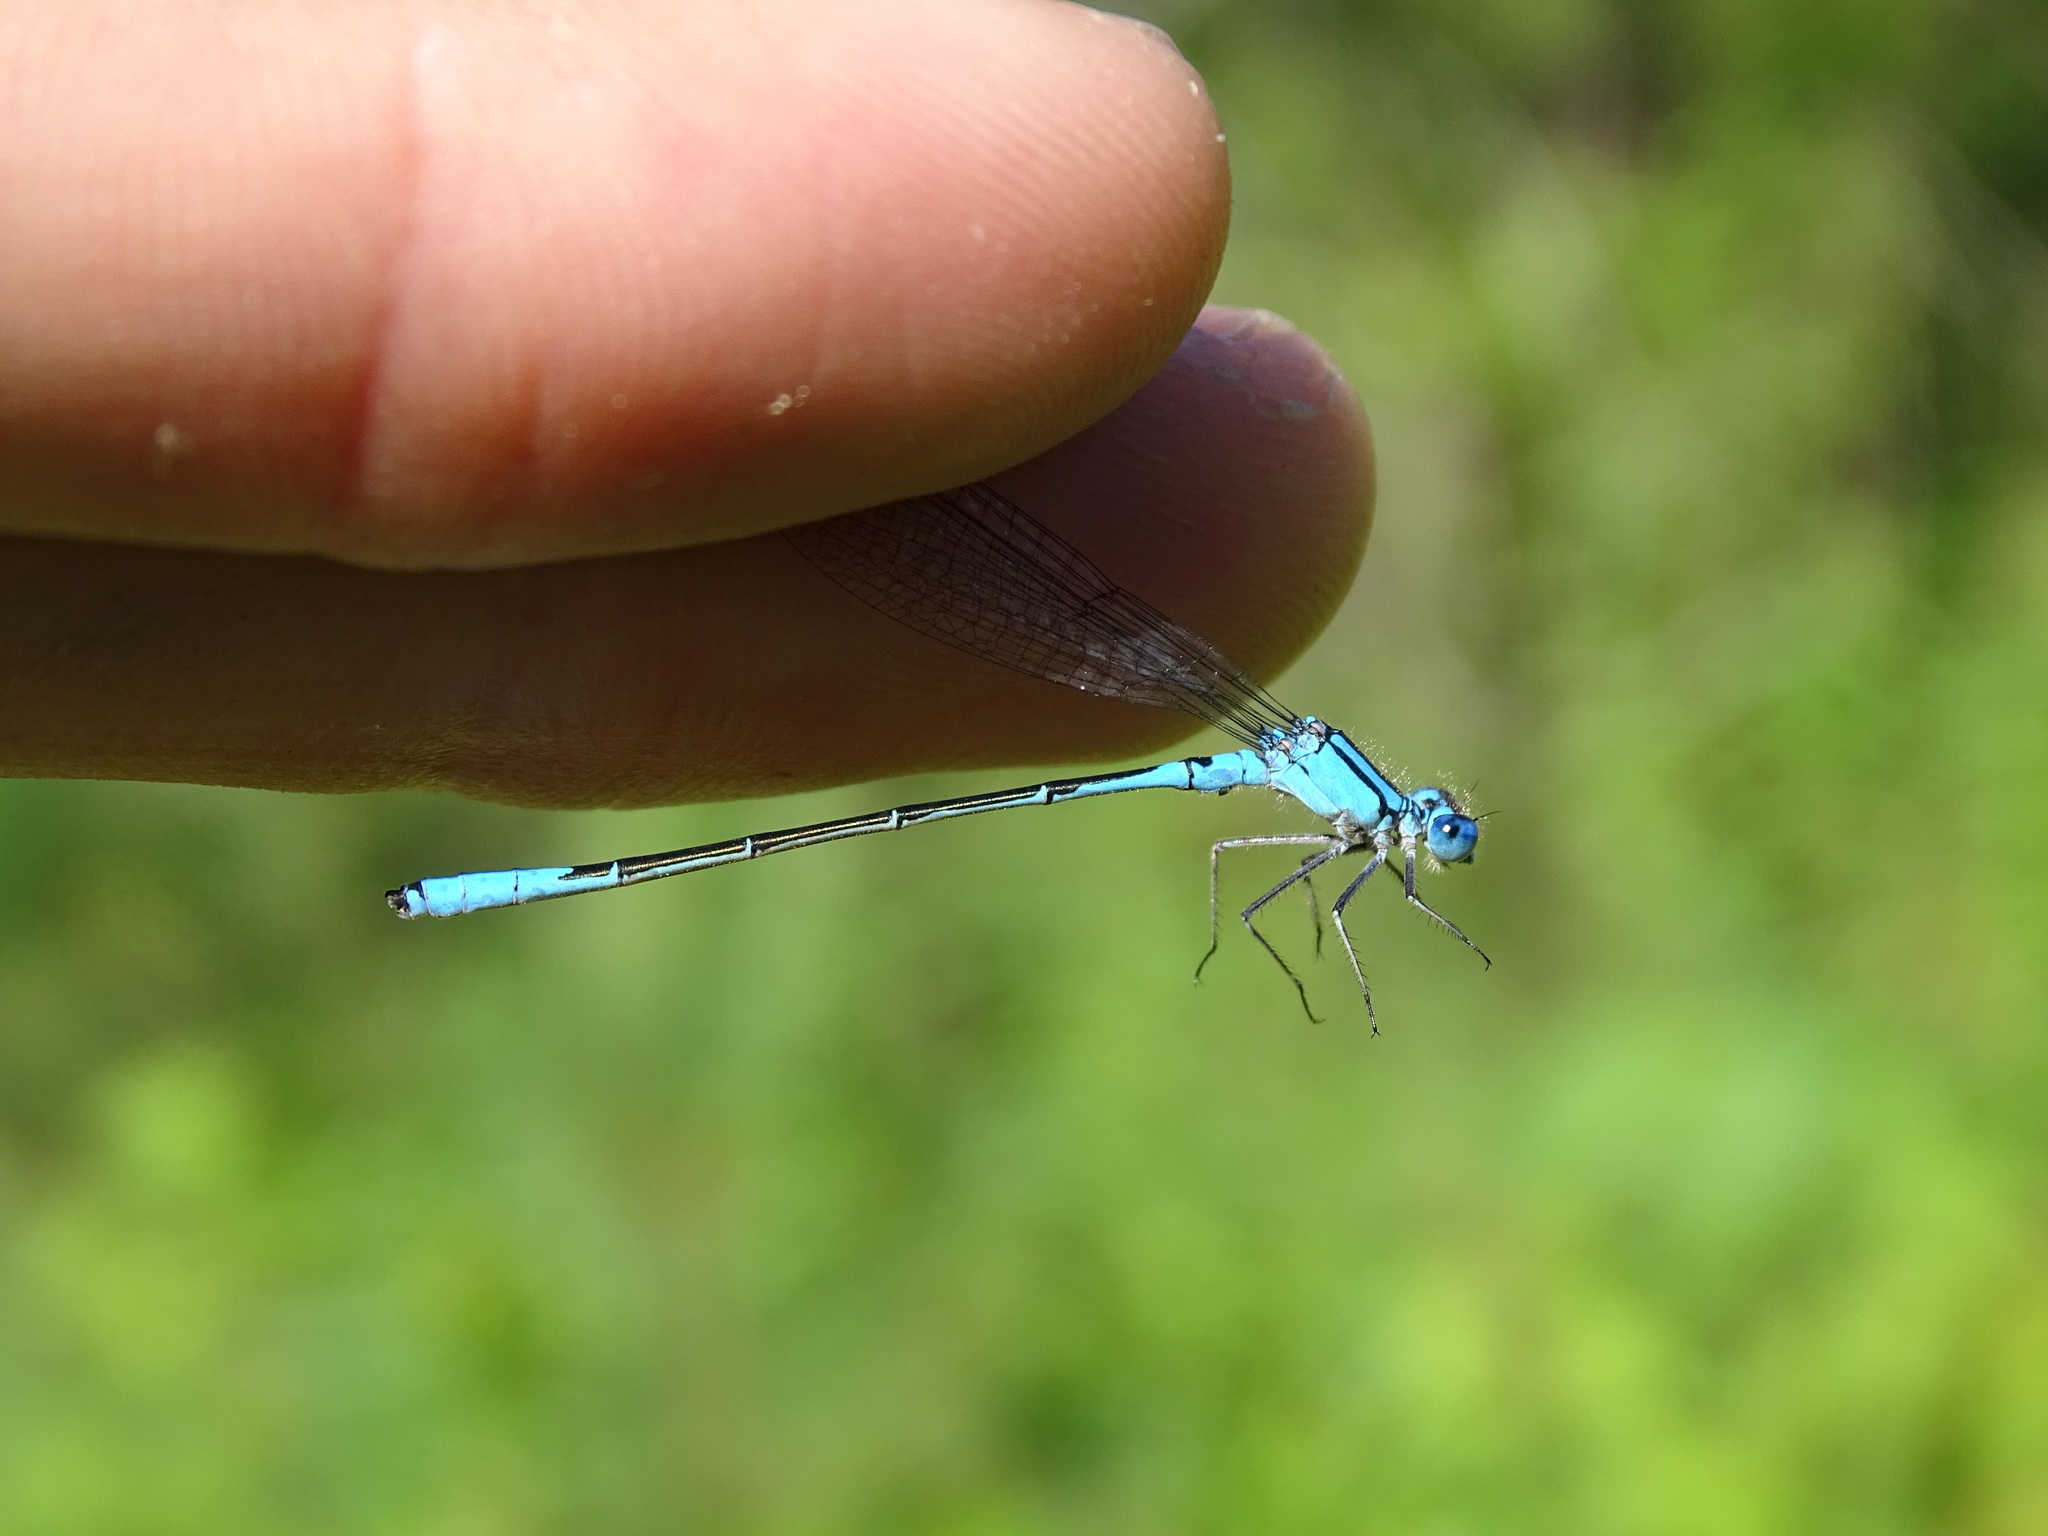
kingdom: Animalia
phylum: Arthropoda
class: Insecta
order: Odonata
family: Coenagrionidae
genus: Enallagma
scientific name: Enallagma aspersum
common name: Azure bluet
